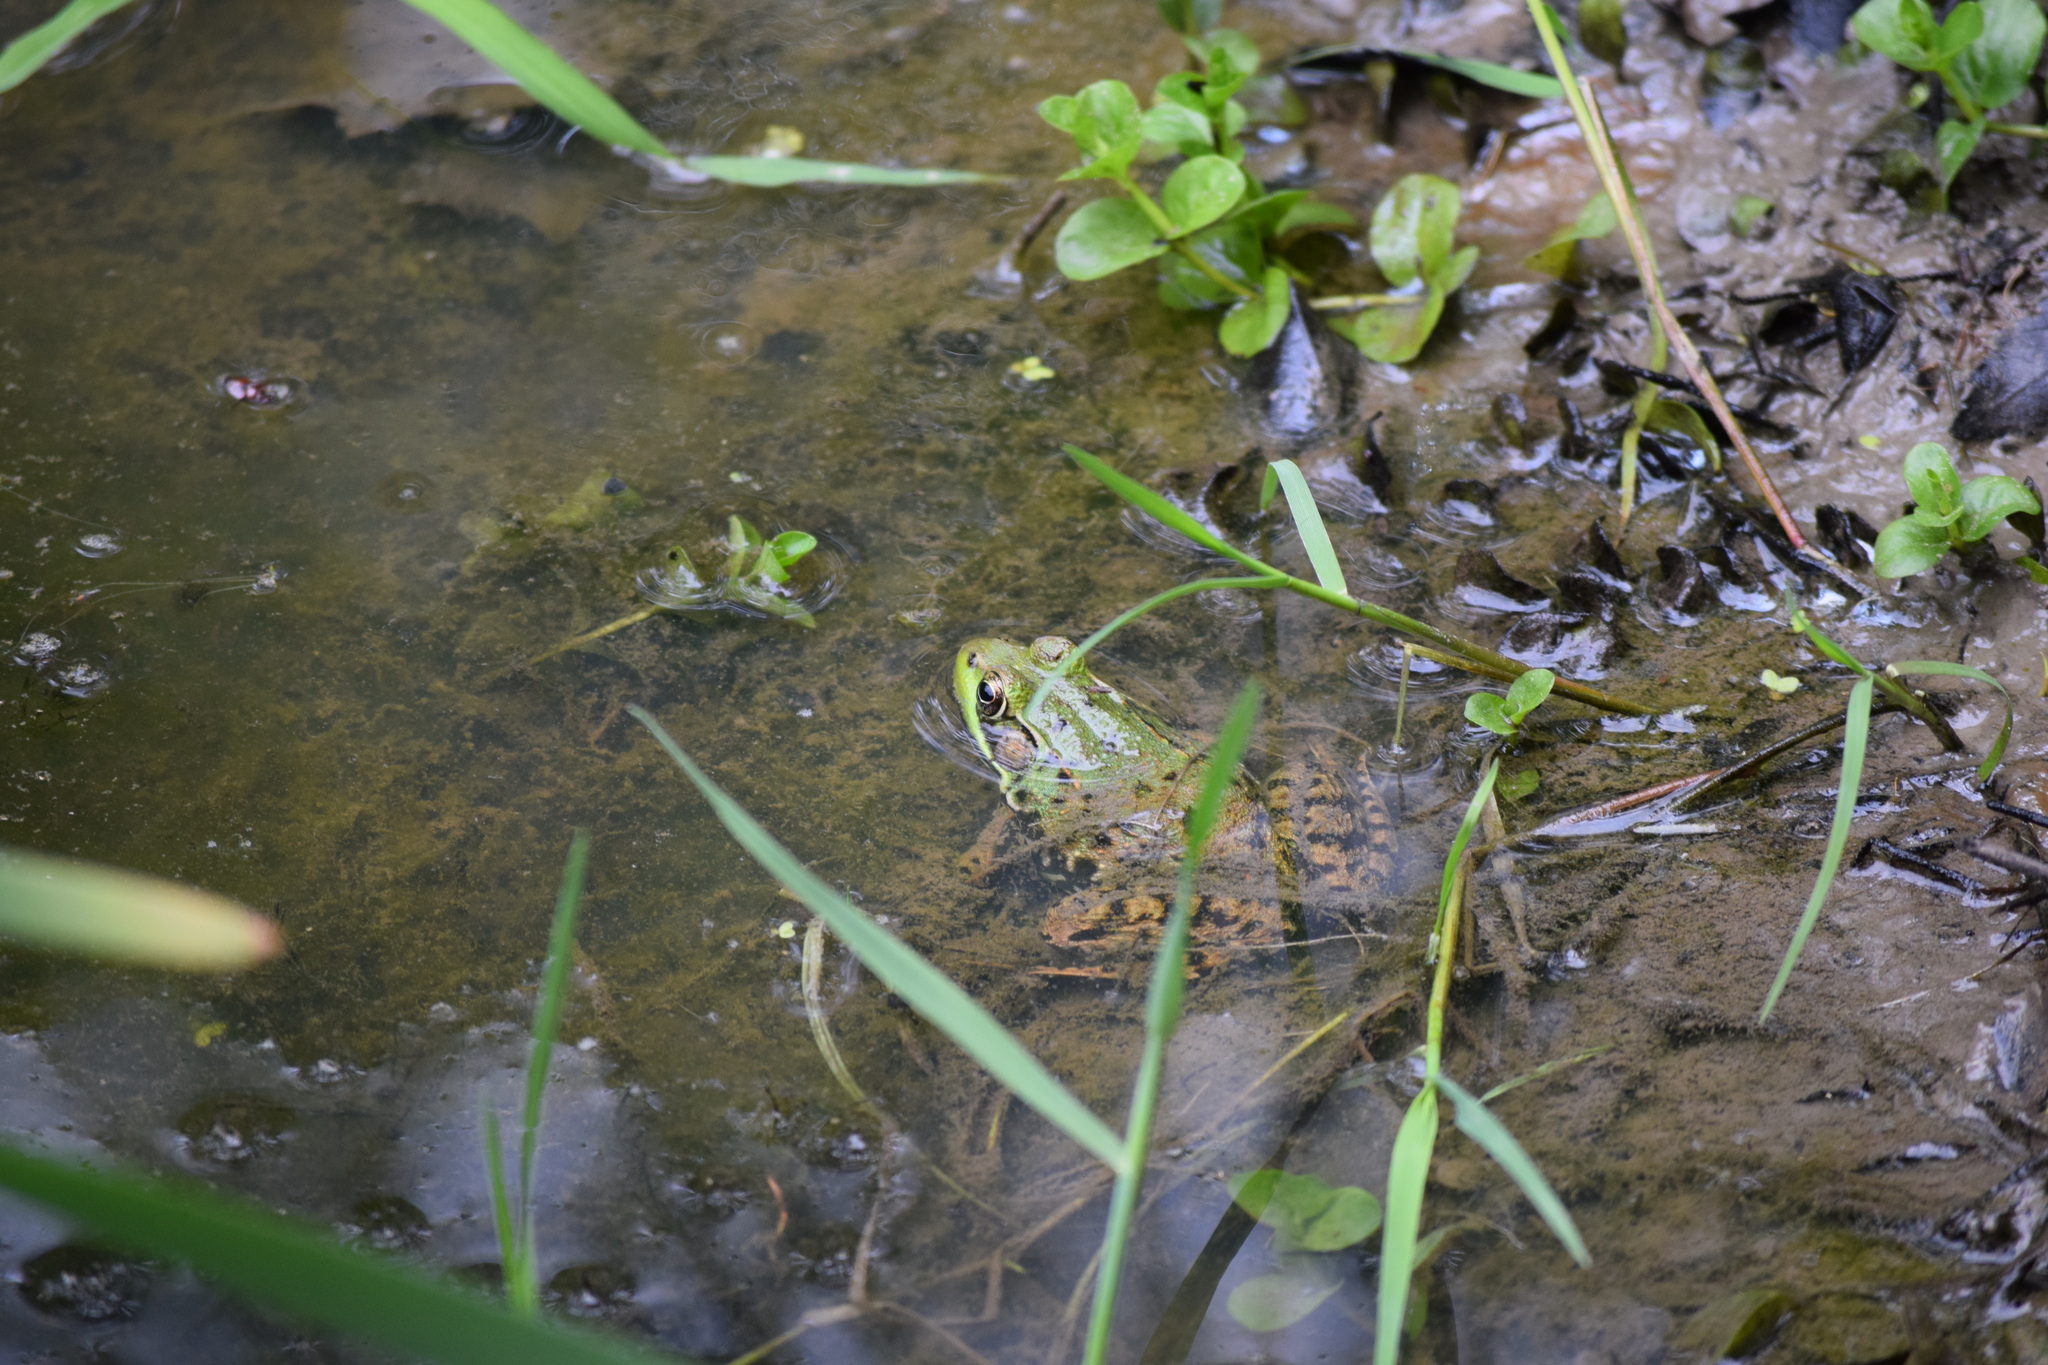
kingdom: Animalia
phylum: Chordata
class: Amphibia
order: Anura
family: Ranidae
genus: Lithobates
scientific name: Lithobates clamitans
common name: Green frog
